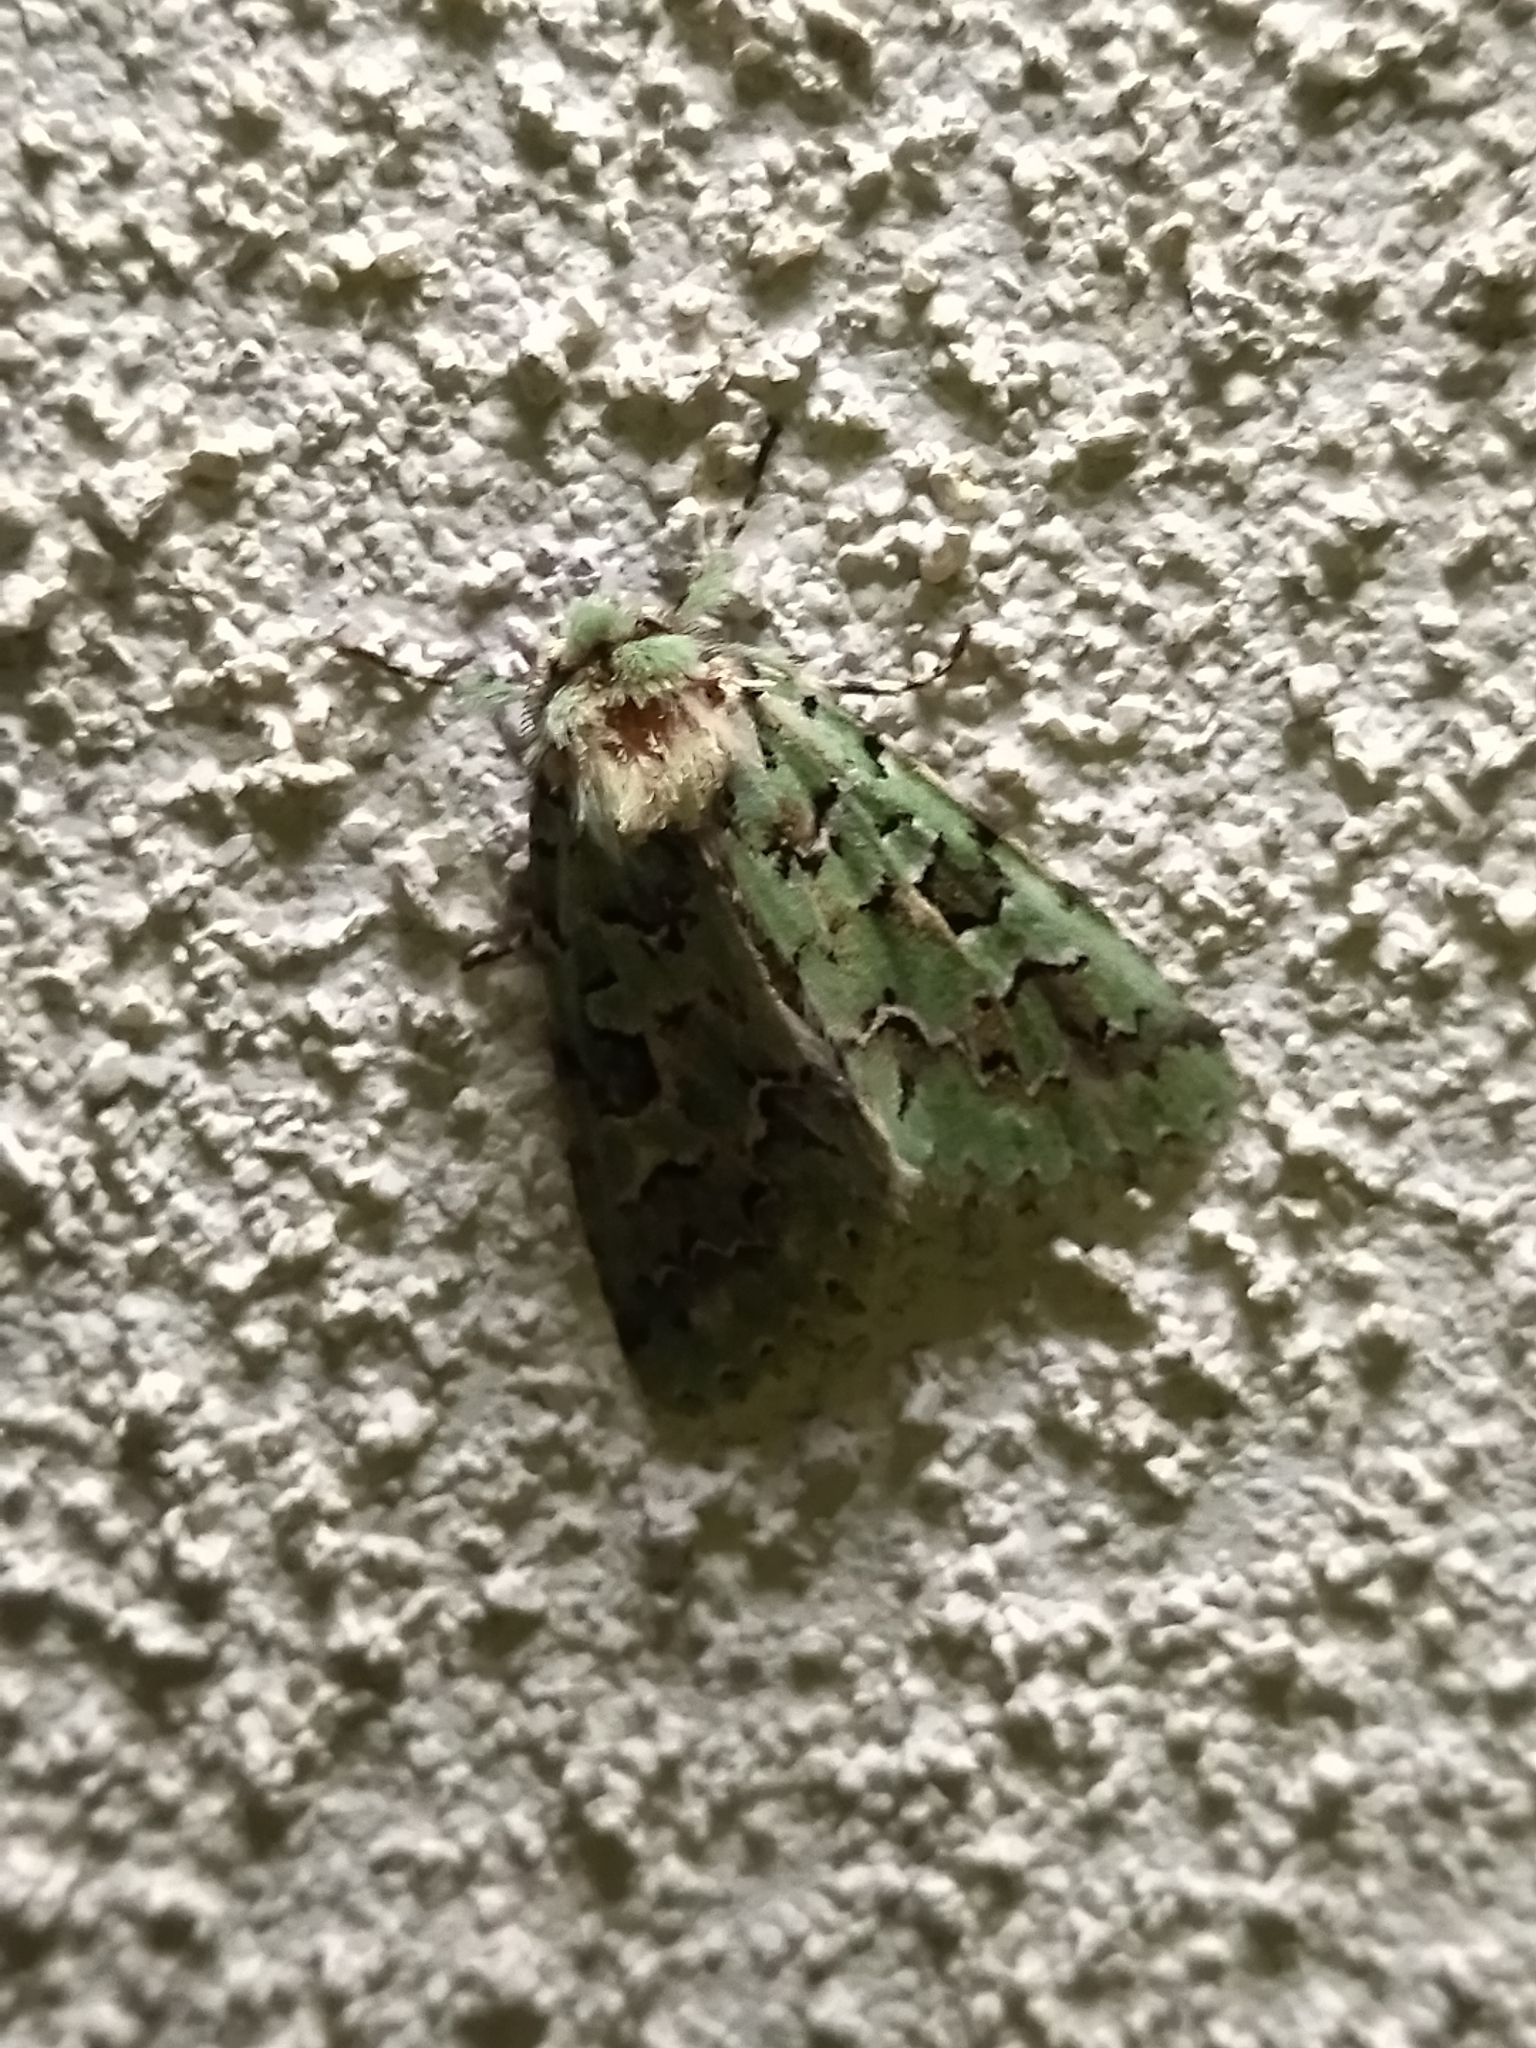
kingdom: Animalia
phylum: Arthropoda
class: Insecta
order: Lepidoptera
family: Noctuidae
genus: Daseochaeta
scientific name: Daseochaeta viridis
